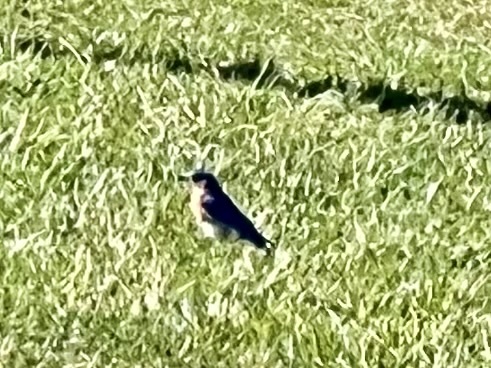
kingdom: Animalia
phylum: Chordata
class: Aves
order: Passeriformes
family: Turdidae
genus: Sialia
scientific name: Sialia sialis
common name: Eastern bluebird
